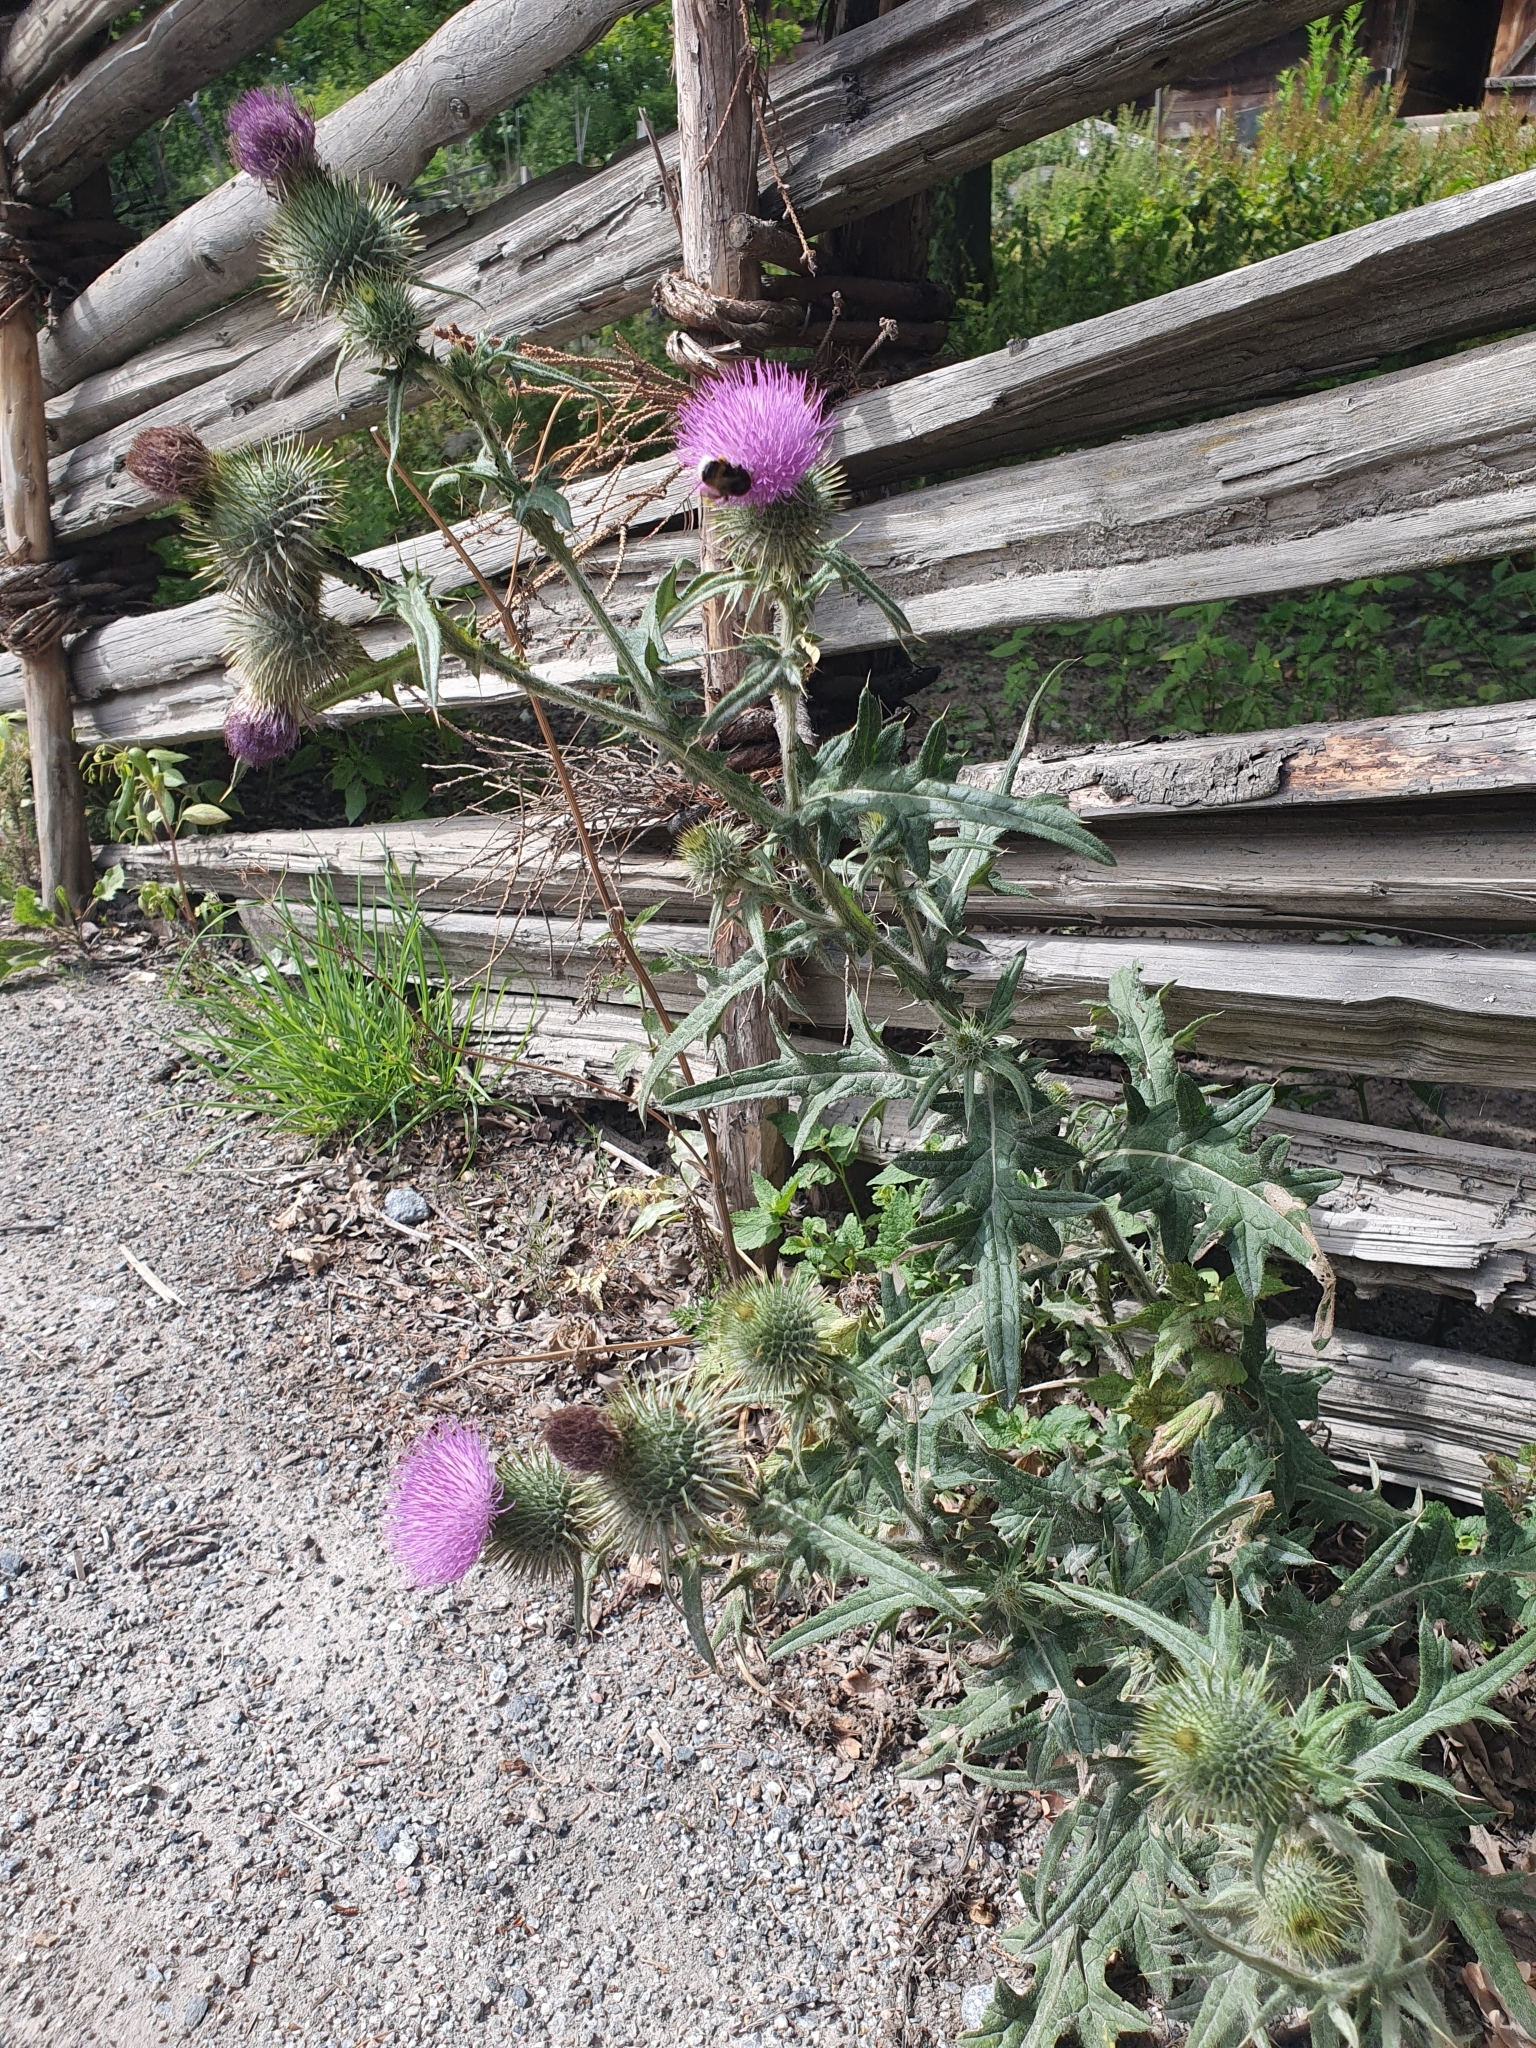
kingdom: Plantae
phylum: Tracheophyta
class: Magnoliopsida
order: Asterales
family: Asteraceae
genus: Cirsium
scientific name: Cirsium vulgare
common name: Bull thistle
